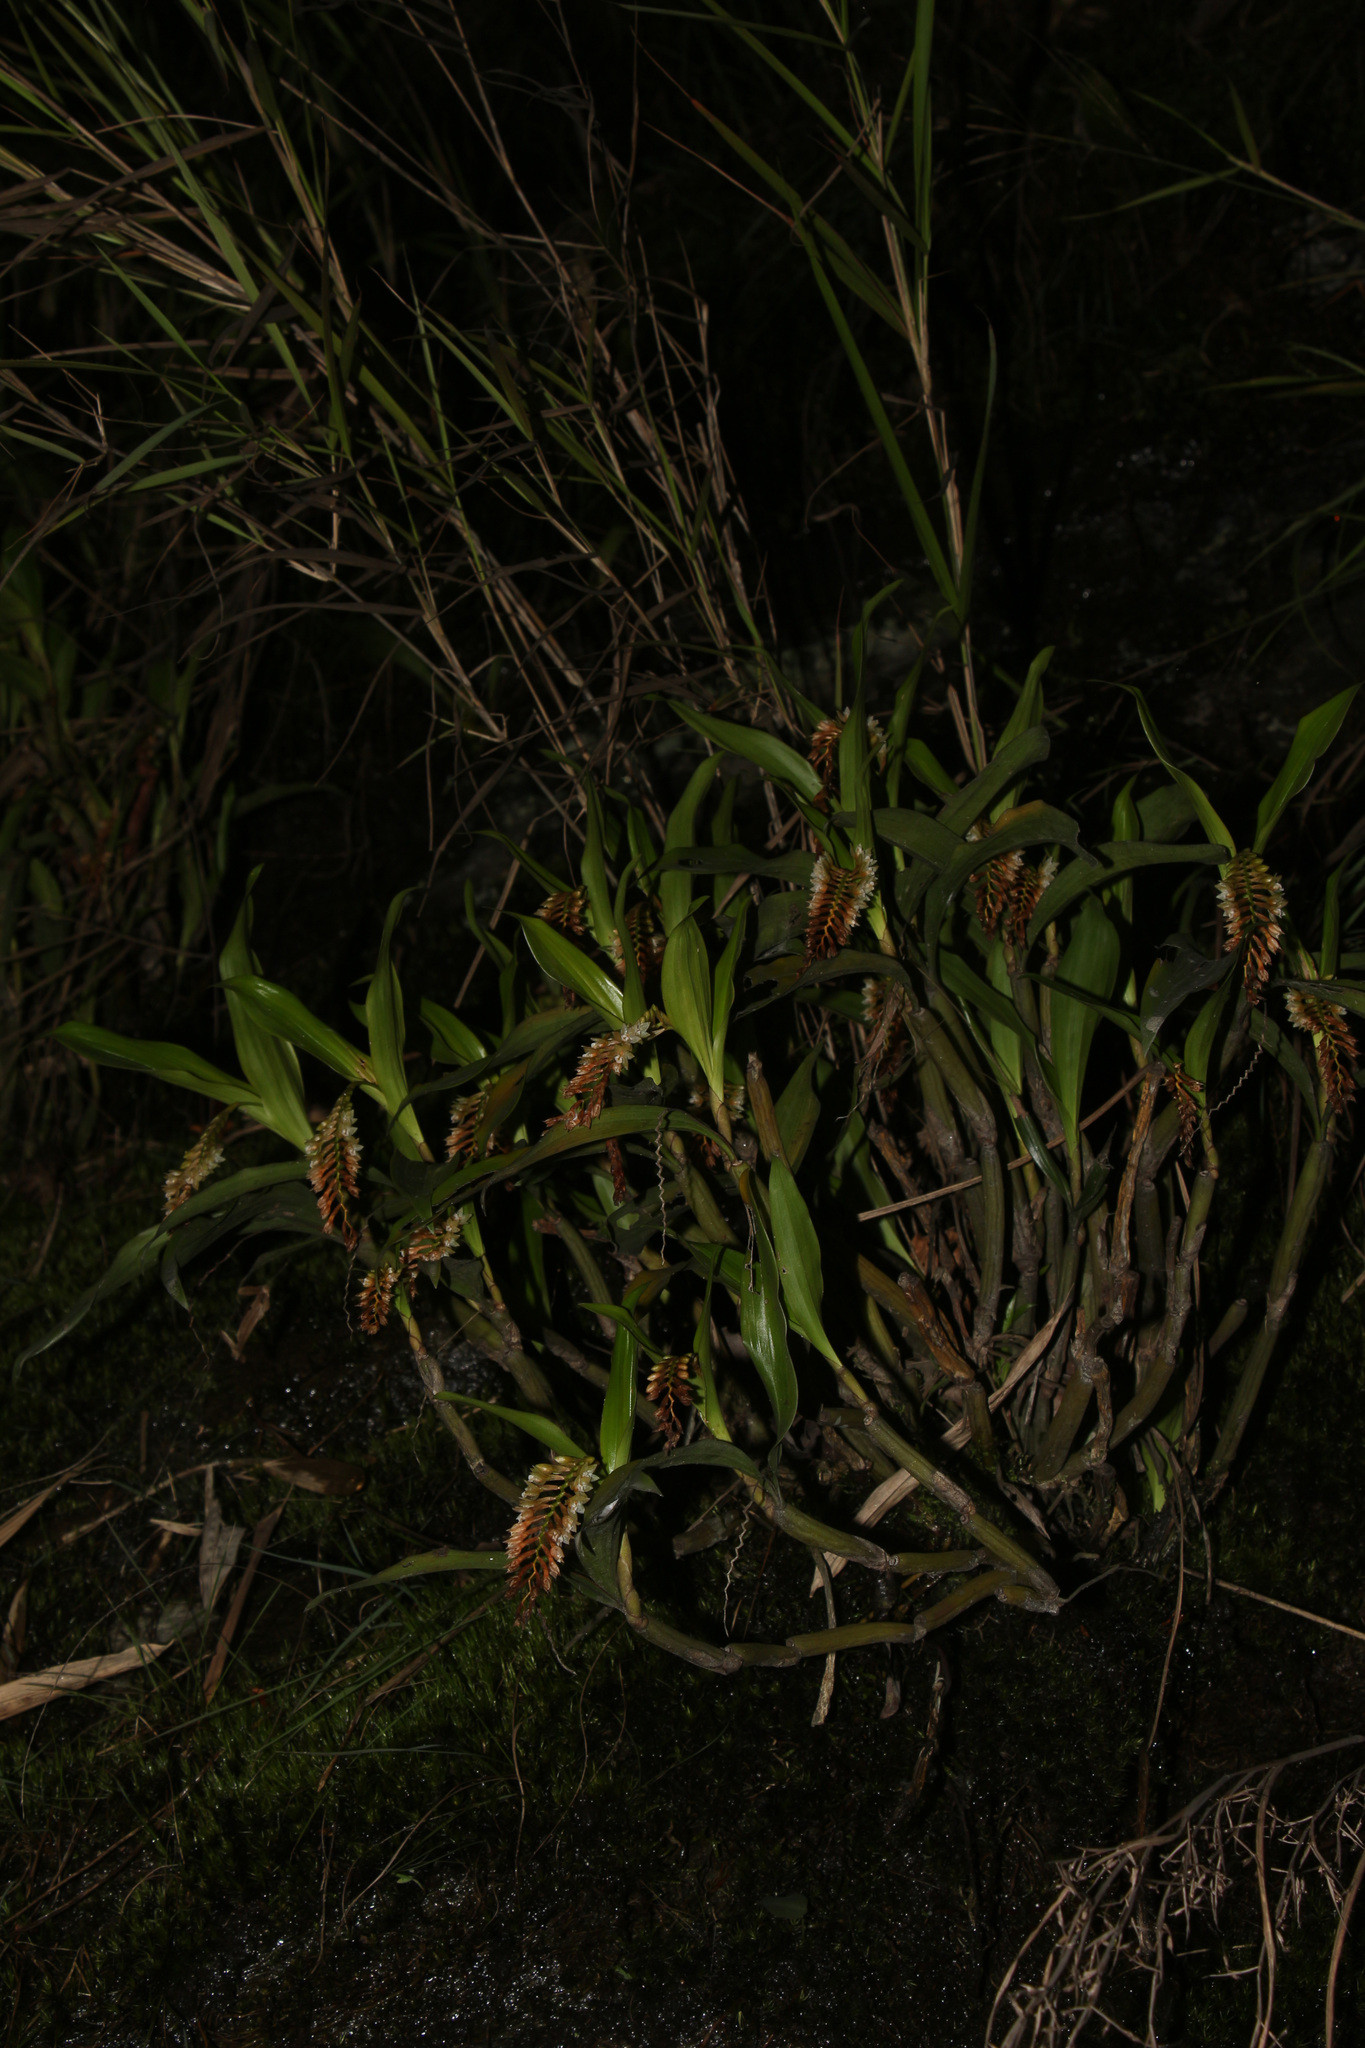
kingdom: Plantae
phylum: Tracheophyta
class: Liliopsida
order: Asparagales
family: Orchidaceae
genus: Coelogyne
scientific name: Coelogyne articulata
